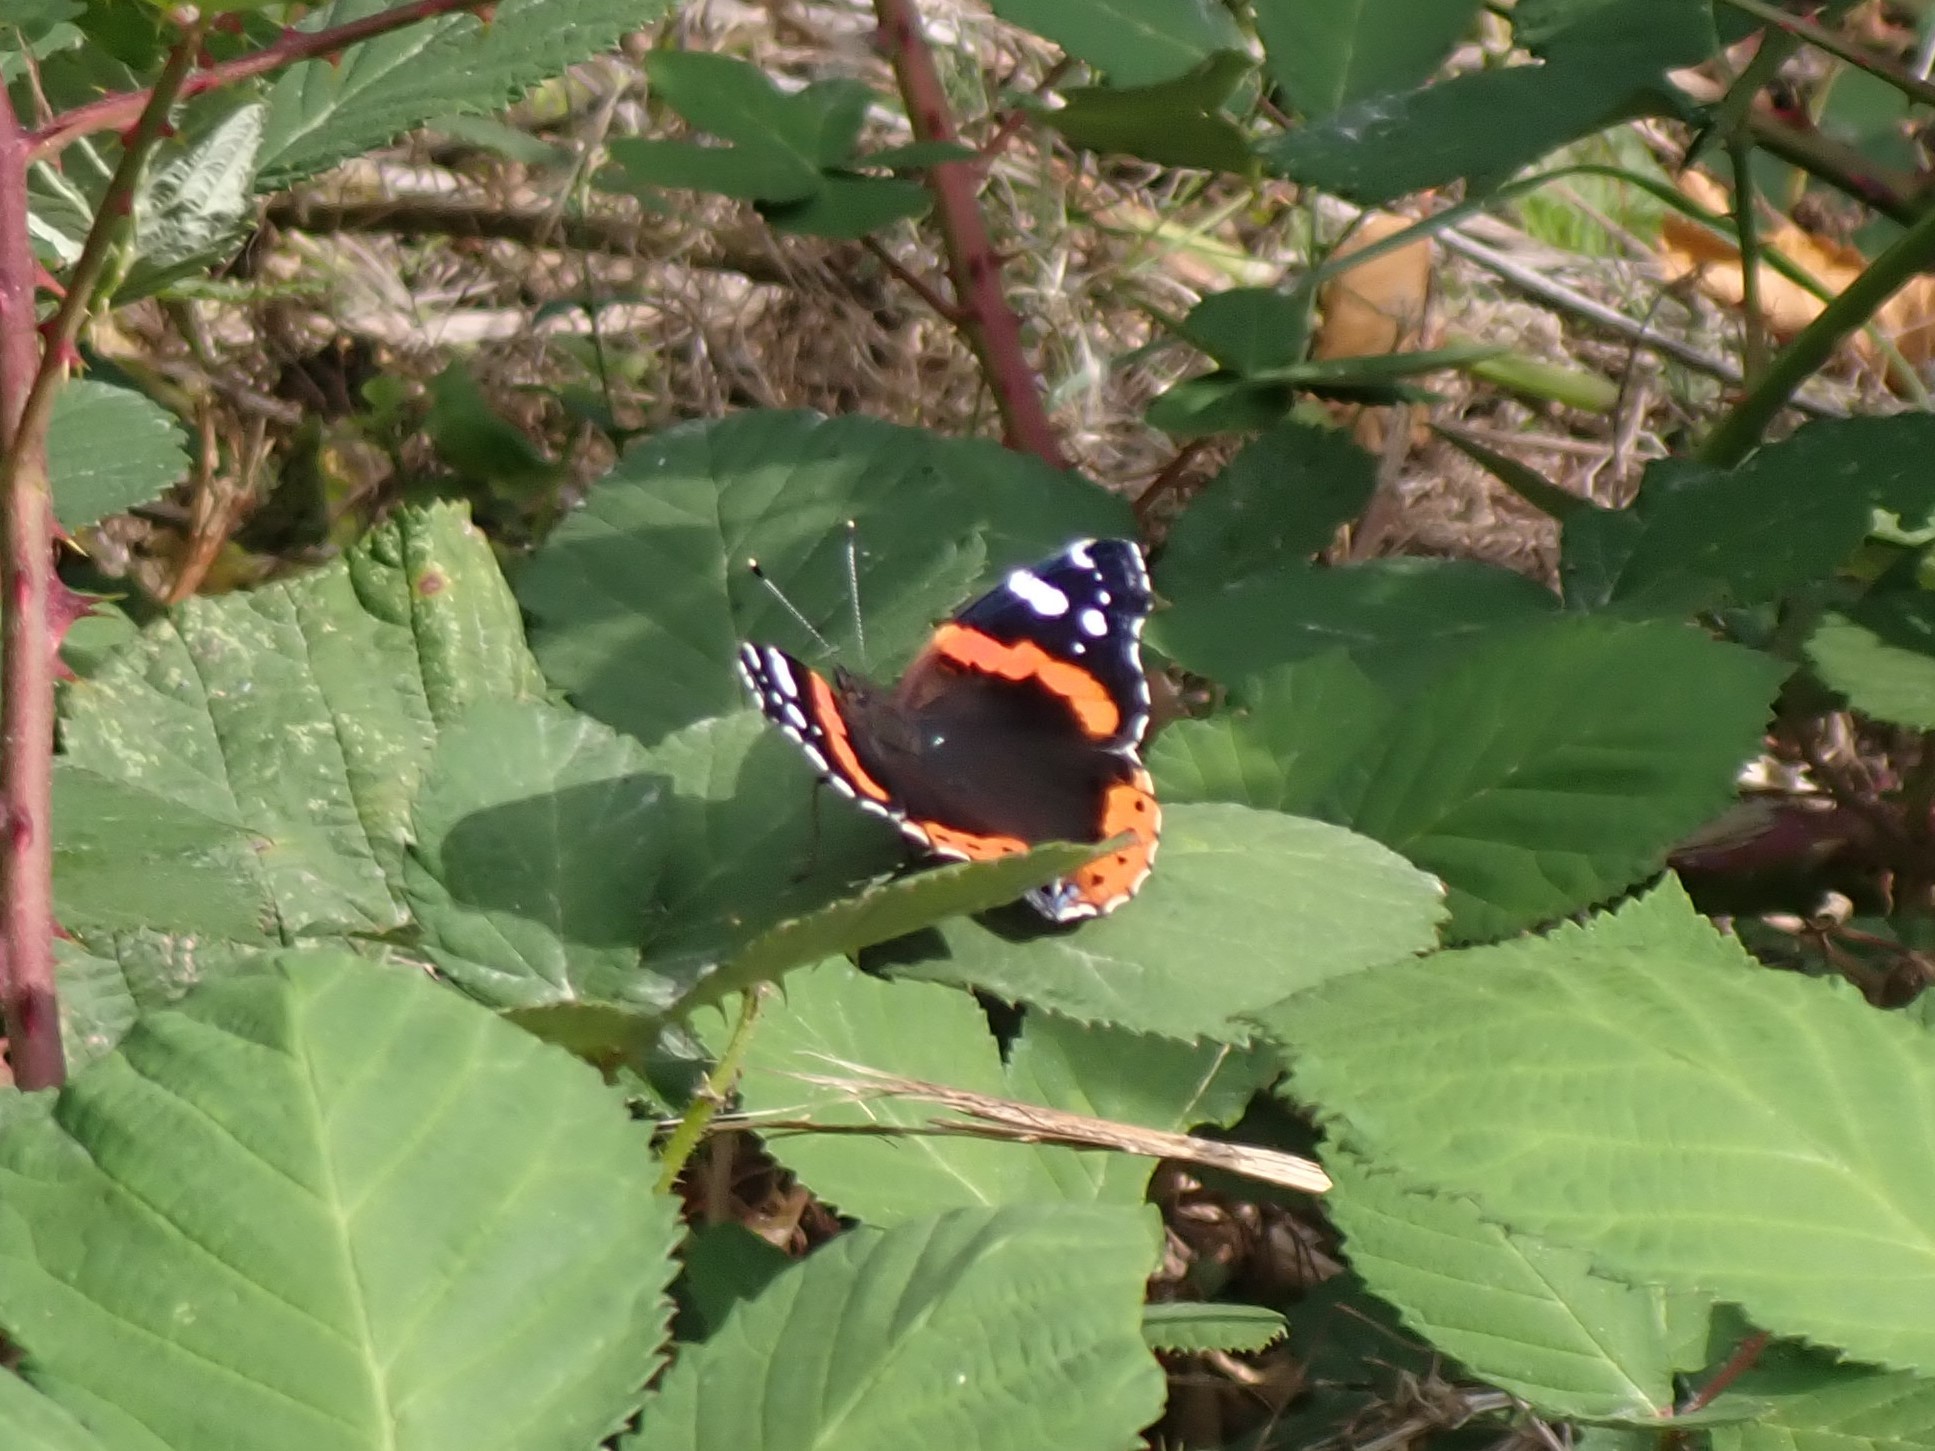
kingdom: Animalia
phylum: Arthropoda
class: Insecta
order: Lepidoptera
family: Nymphalidae
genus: Vanessa
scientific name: Vanessa atalanta
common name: Red admiral
